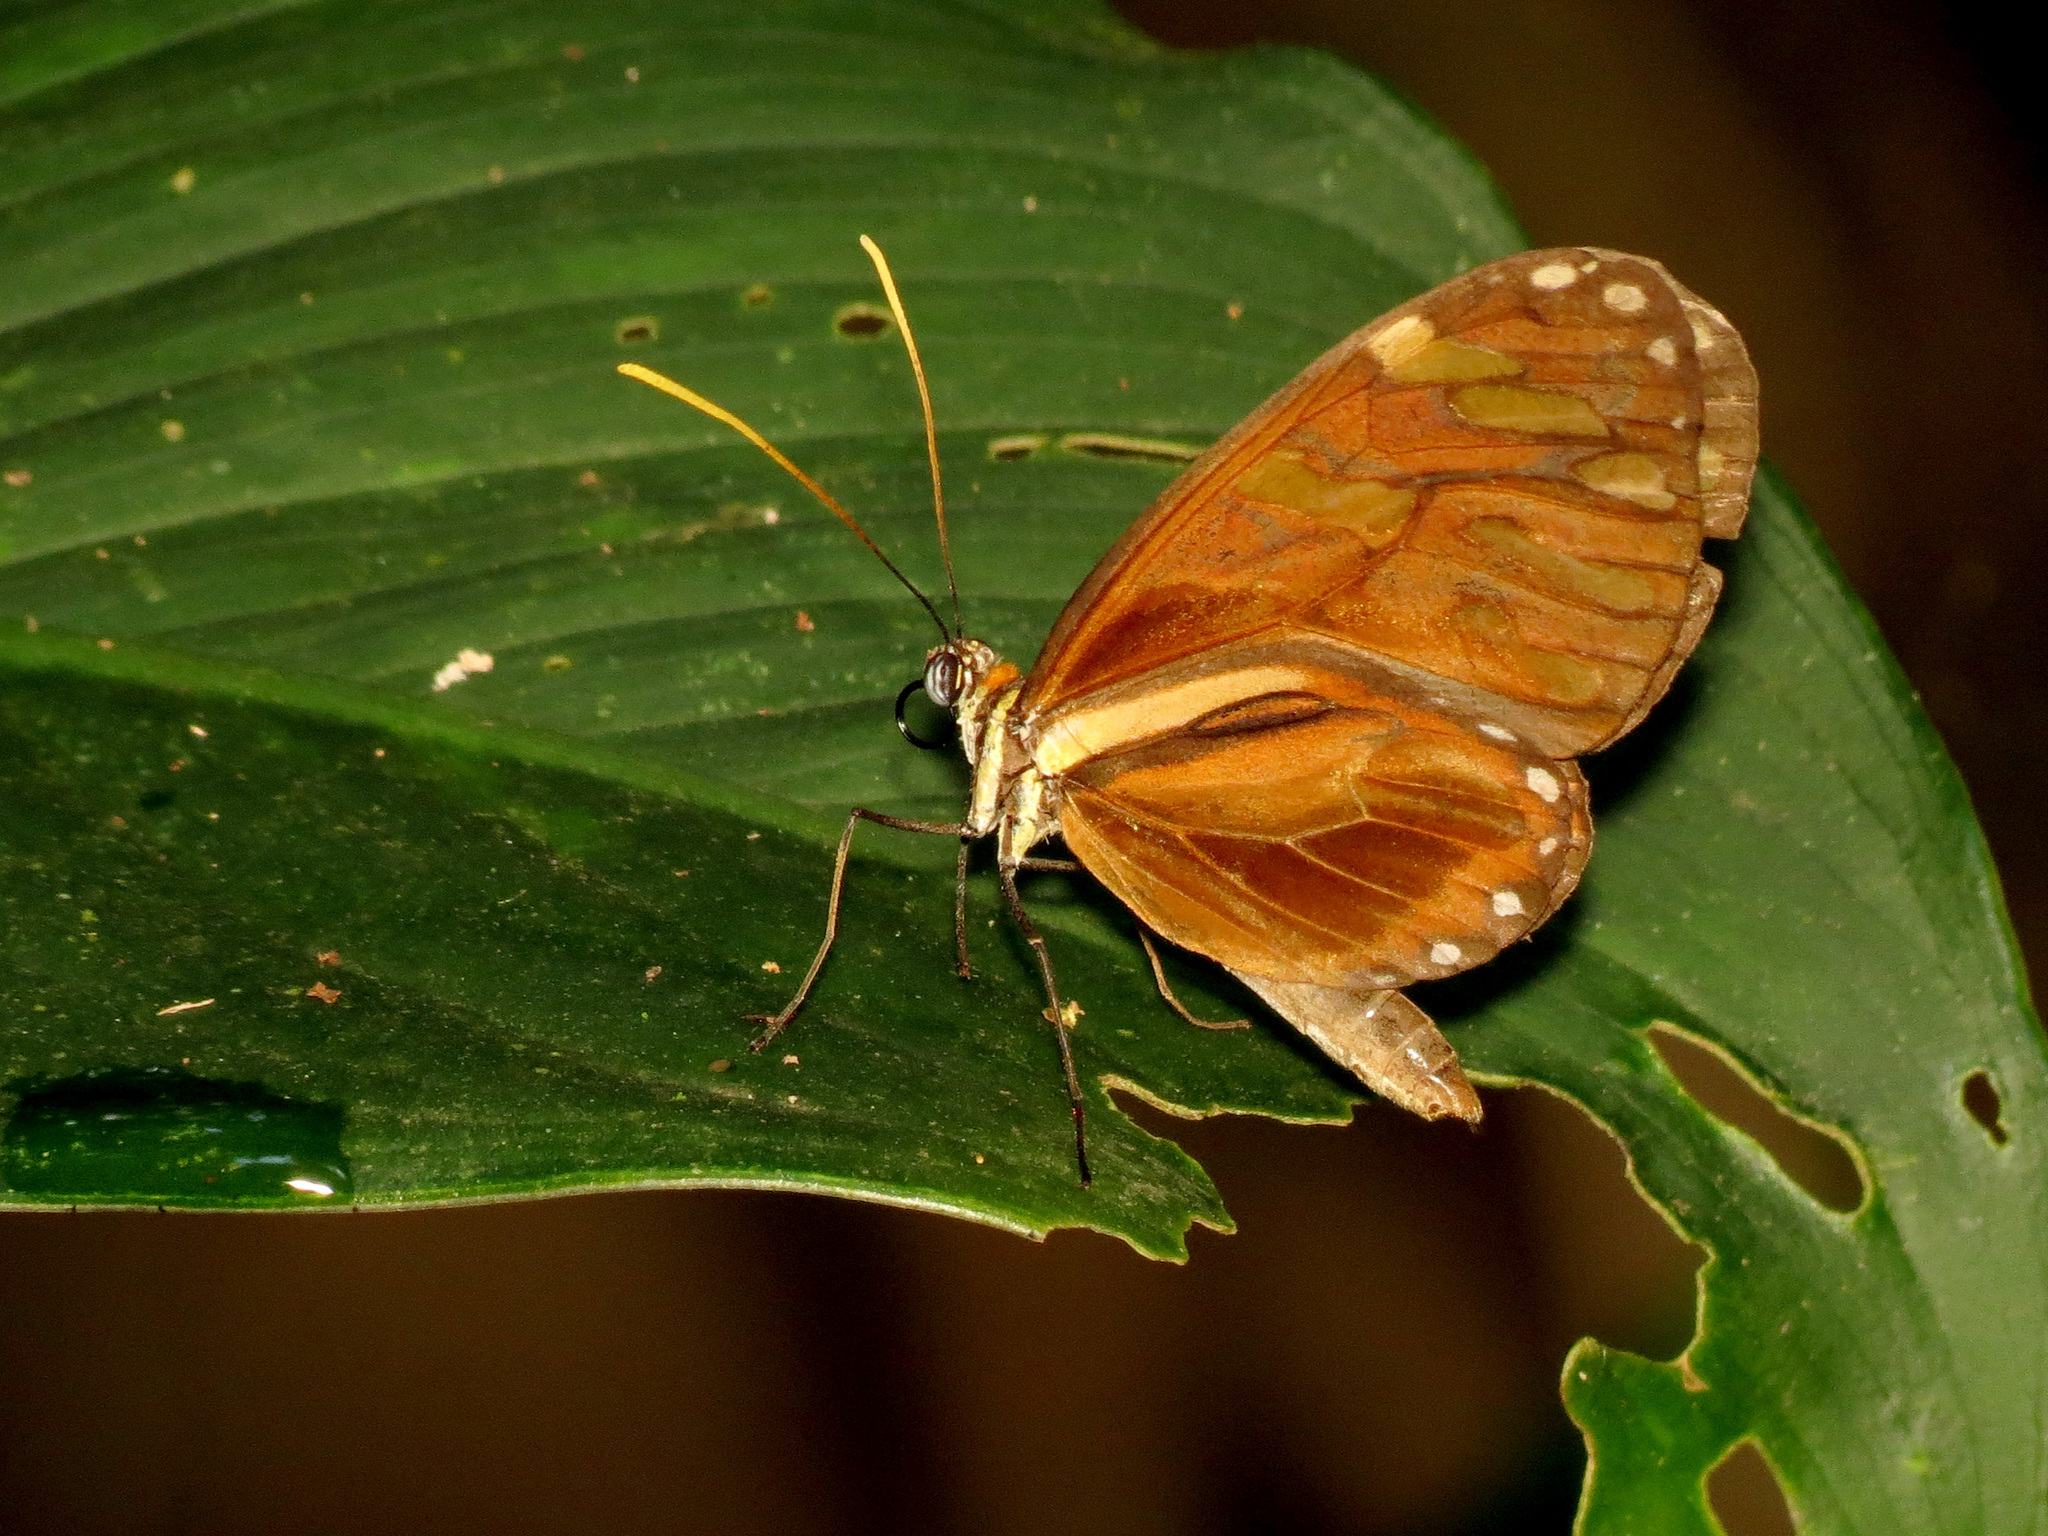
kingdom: Animalia
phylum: Arthropoda
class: Insecta
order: Lepidoptera
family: Nymphalidae
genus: Ithomia
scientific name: Ithomia heraldica
